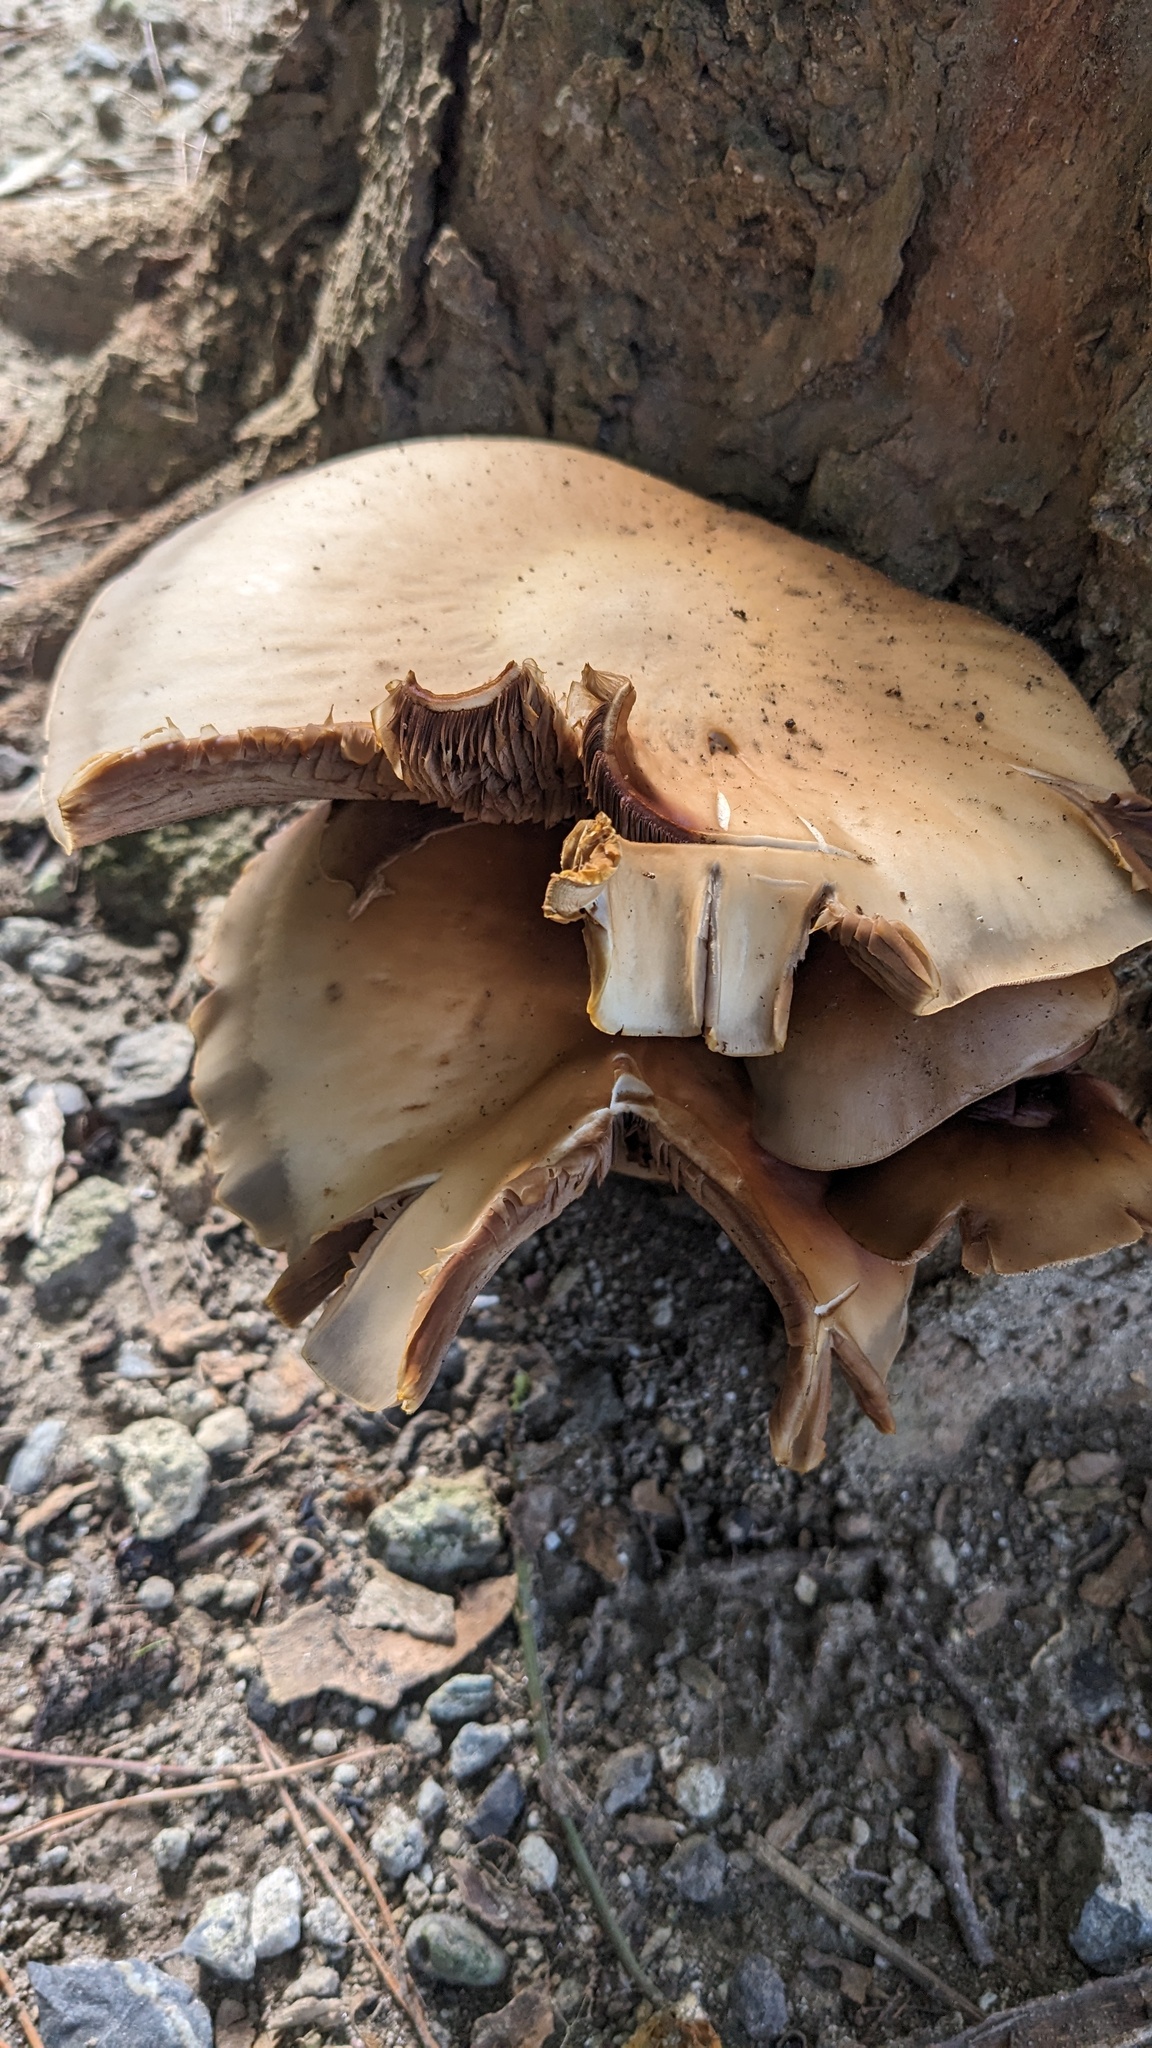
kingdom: Fungi
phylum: Basidiomycota
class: Agaricomycetes
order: Agaricales
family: Tubariaceae
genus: Cyclocybe
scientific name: Cyclocybe cylindracea
